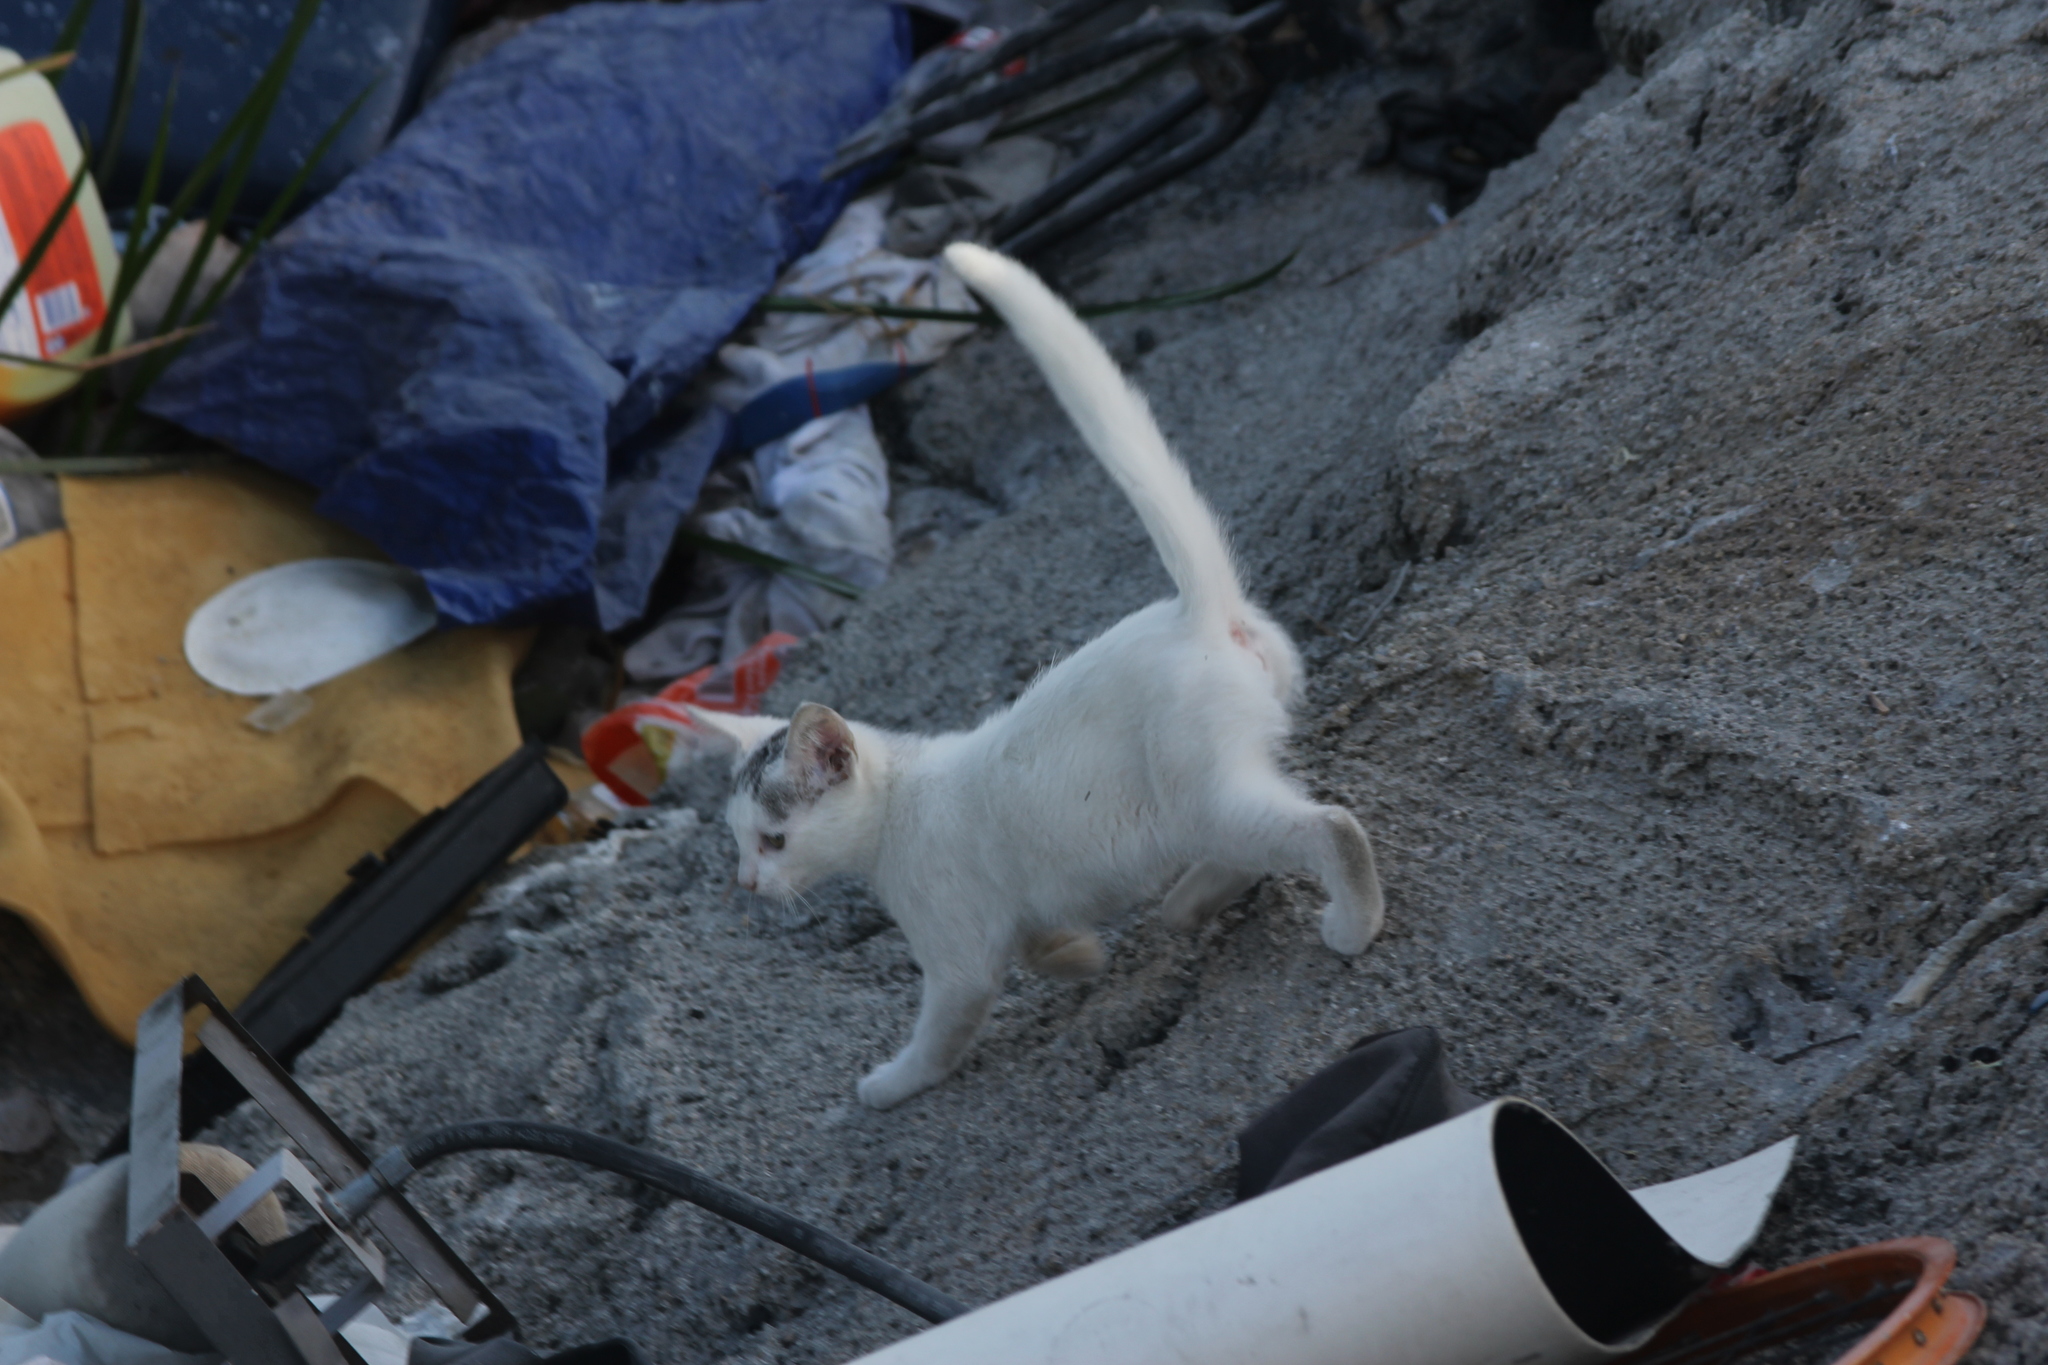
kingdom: Animalia
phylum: Chordata
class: Mammalia
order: Carnivora
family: Felidae
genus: Felis
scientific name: Felis catus
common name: Domestic cat
